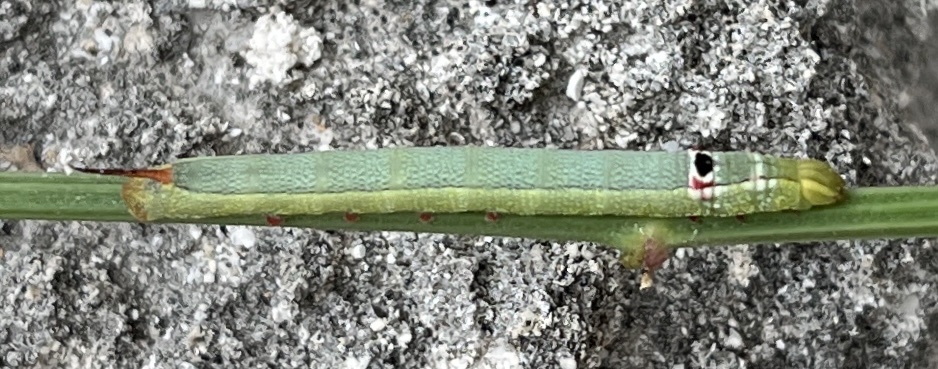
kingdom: Animalia
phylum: Arthropoda
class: Insecta
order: Lepidoptera
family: Sphingidae
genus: Erinnyis
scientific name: Erinnyis ello
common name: Ello sphinx
